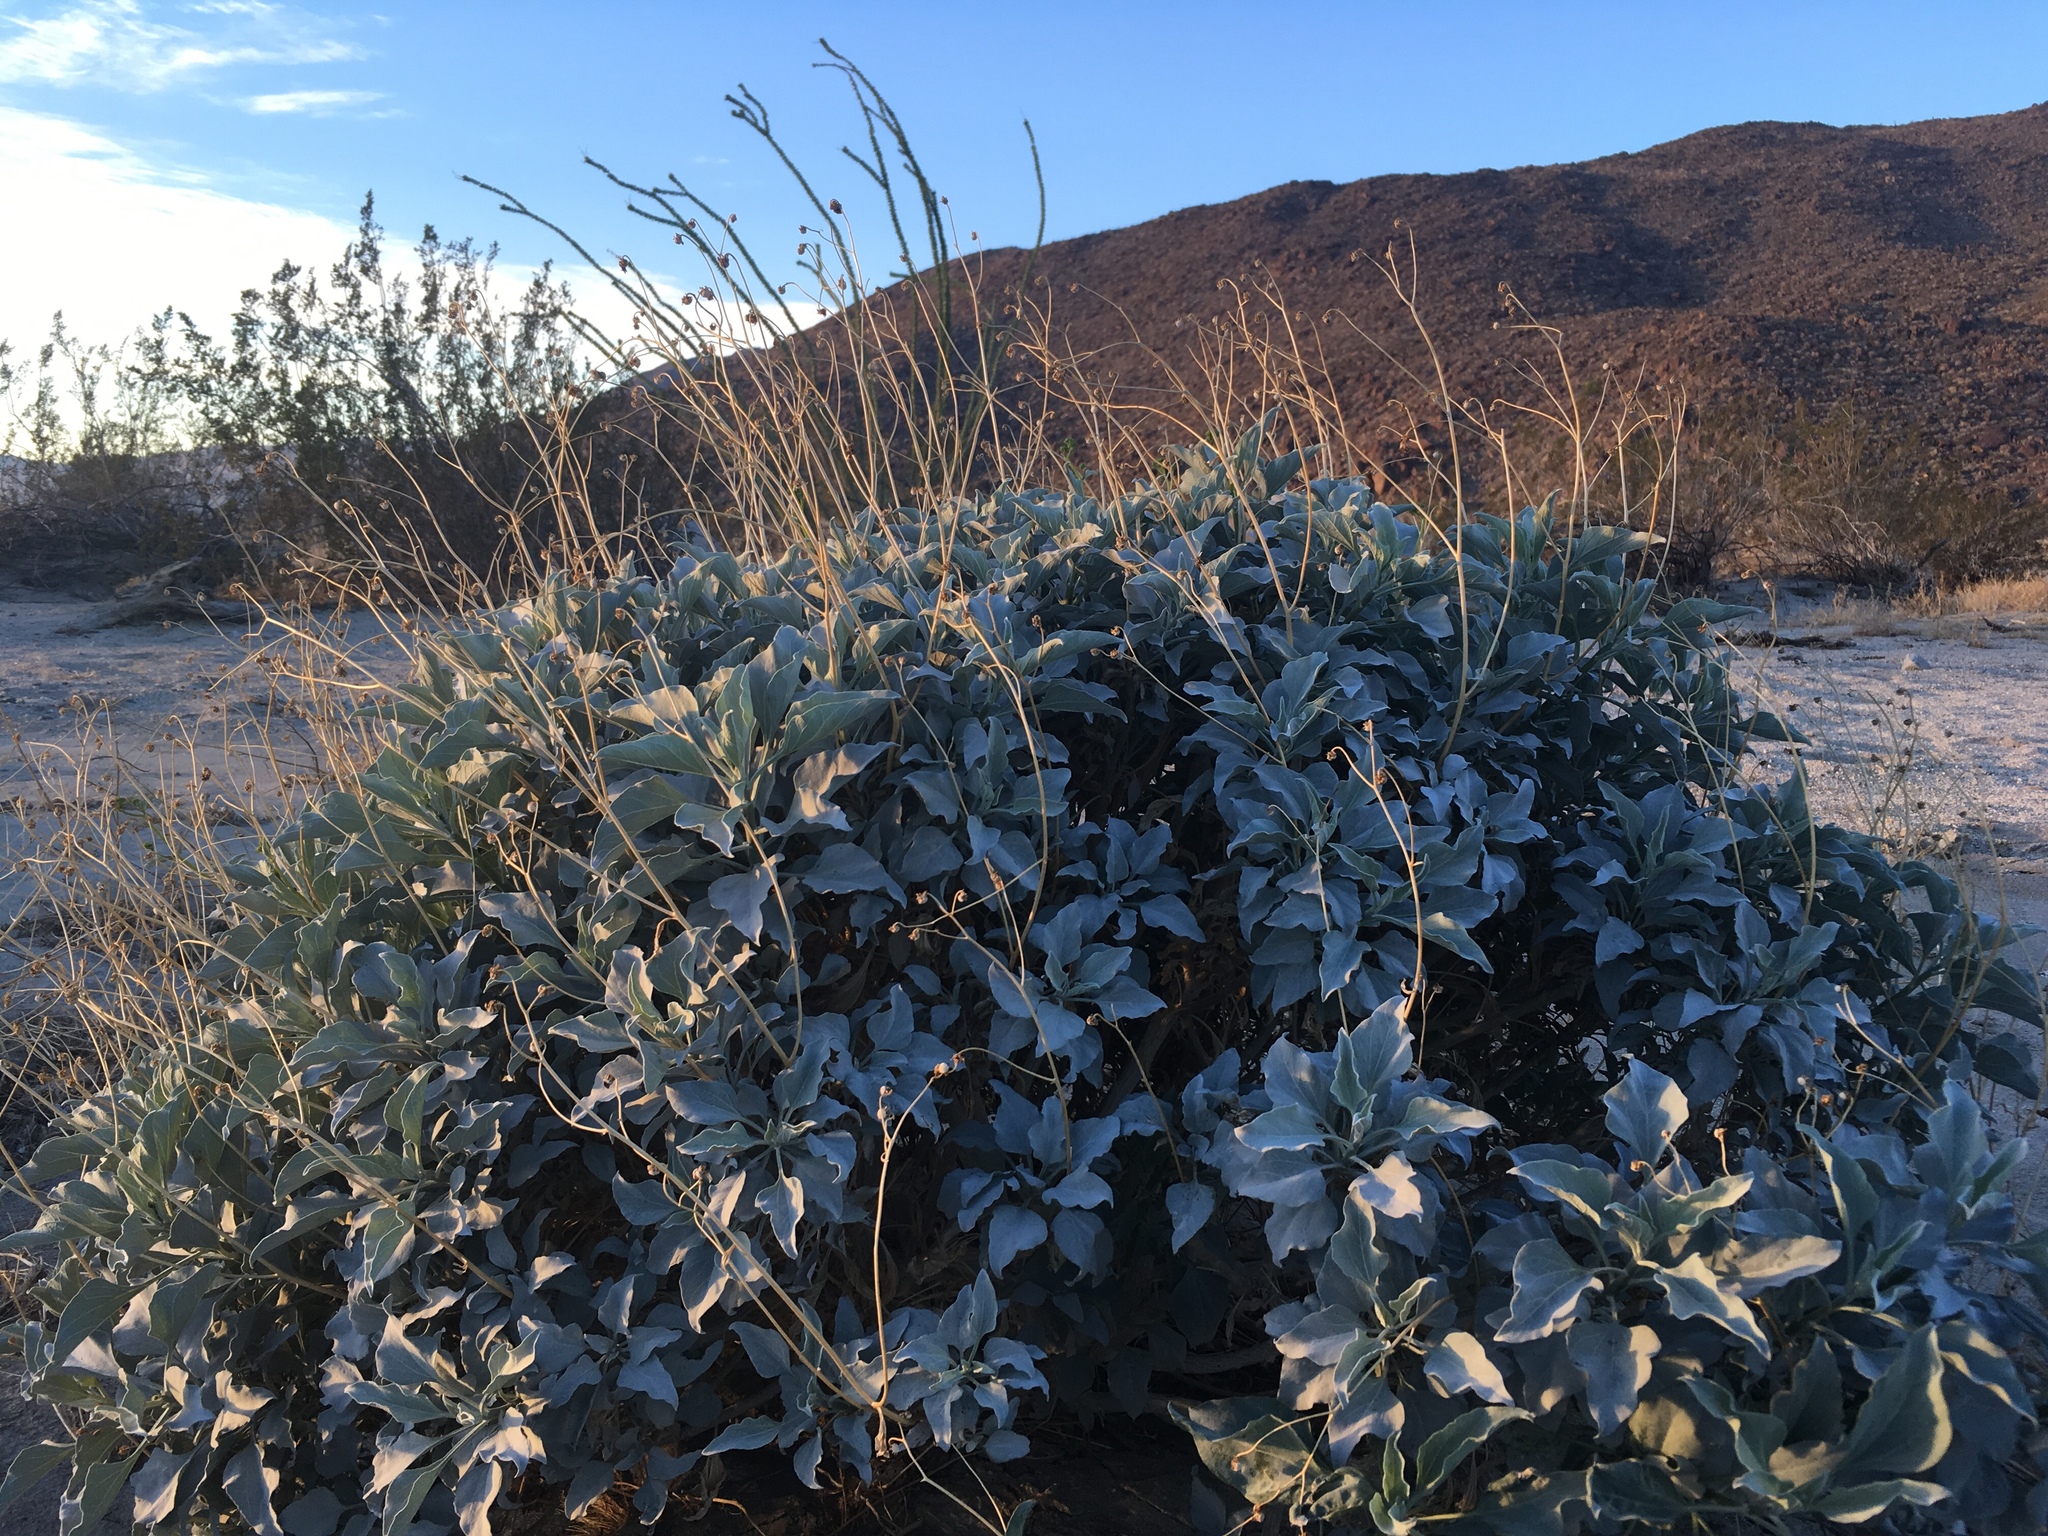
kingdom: Plantae
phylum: Tracheophyta
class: Magnoliopsida
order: Asterales
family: Asteraceae
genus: Encelia
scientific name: Encelia farinosa
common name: Brittlebush
